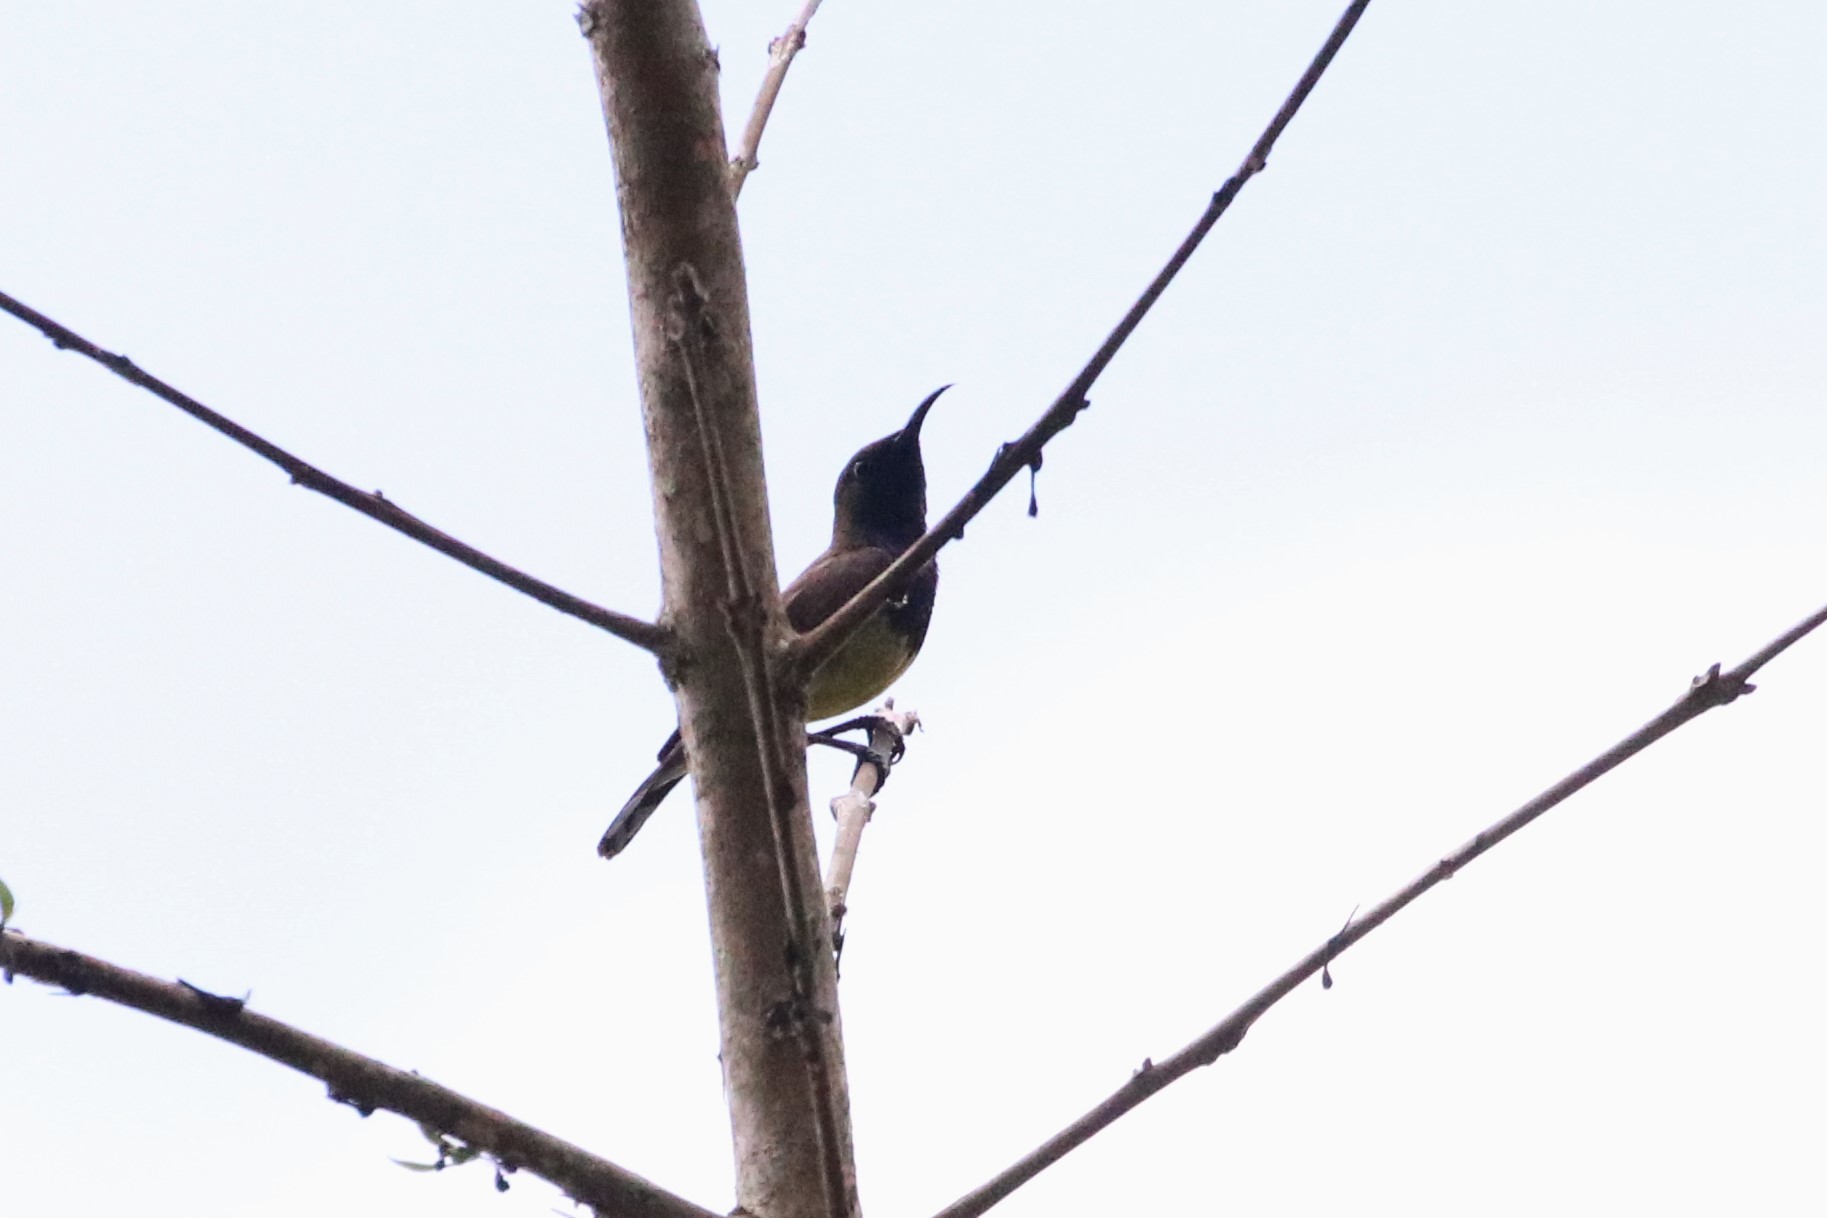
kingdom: Animalia
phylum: Chordata
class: Aves
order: Passeriformes
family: Nectariniidae
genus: Cinnyris
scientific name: Cinnyris
